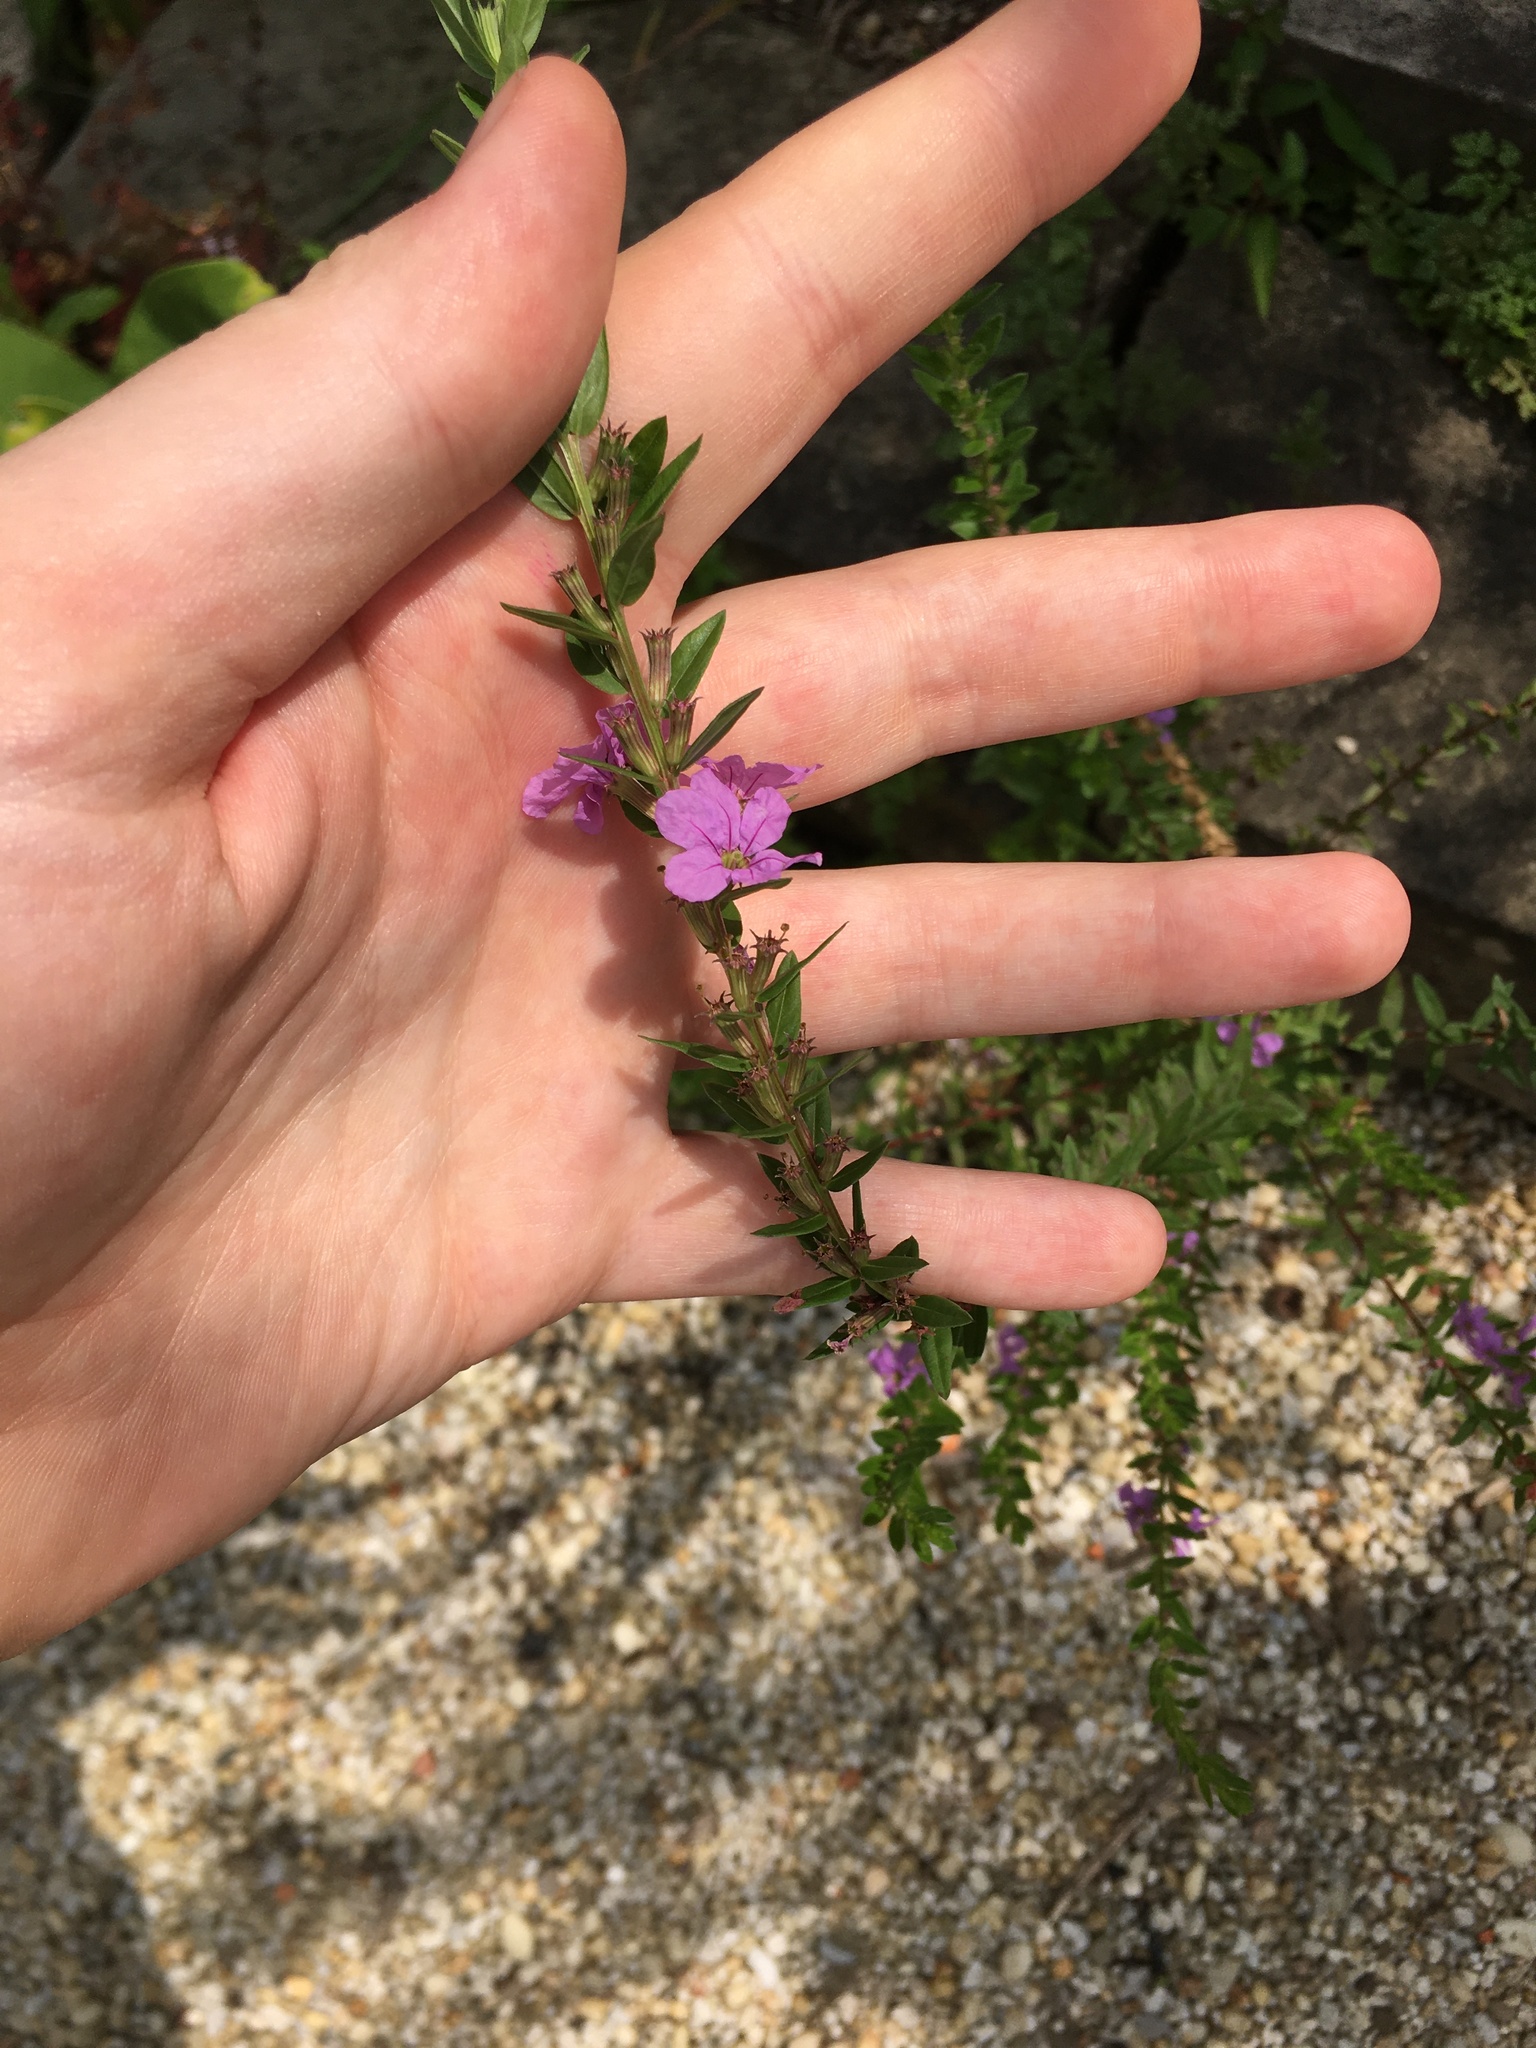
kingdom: Plantae
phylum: Tracheophyta
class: Magnoliopsida
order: Myrtales
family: Lythraceae
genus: Lythrum
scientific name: Lythrum alatum
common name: Winged loosestrife
